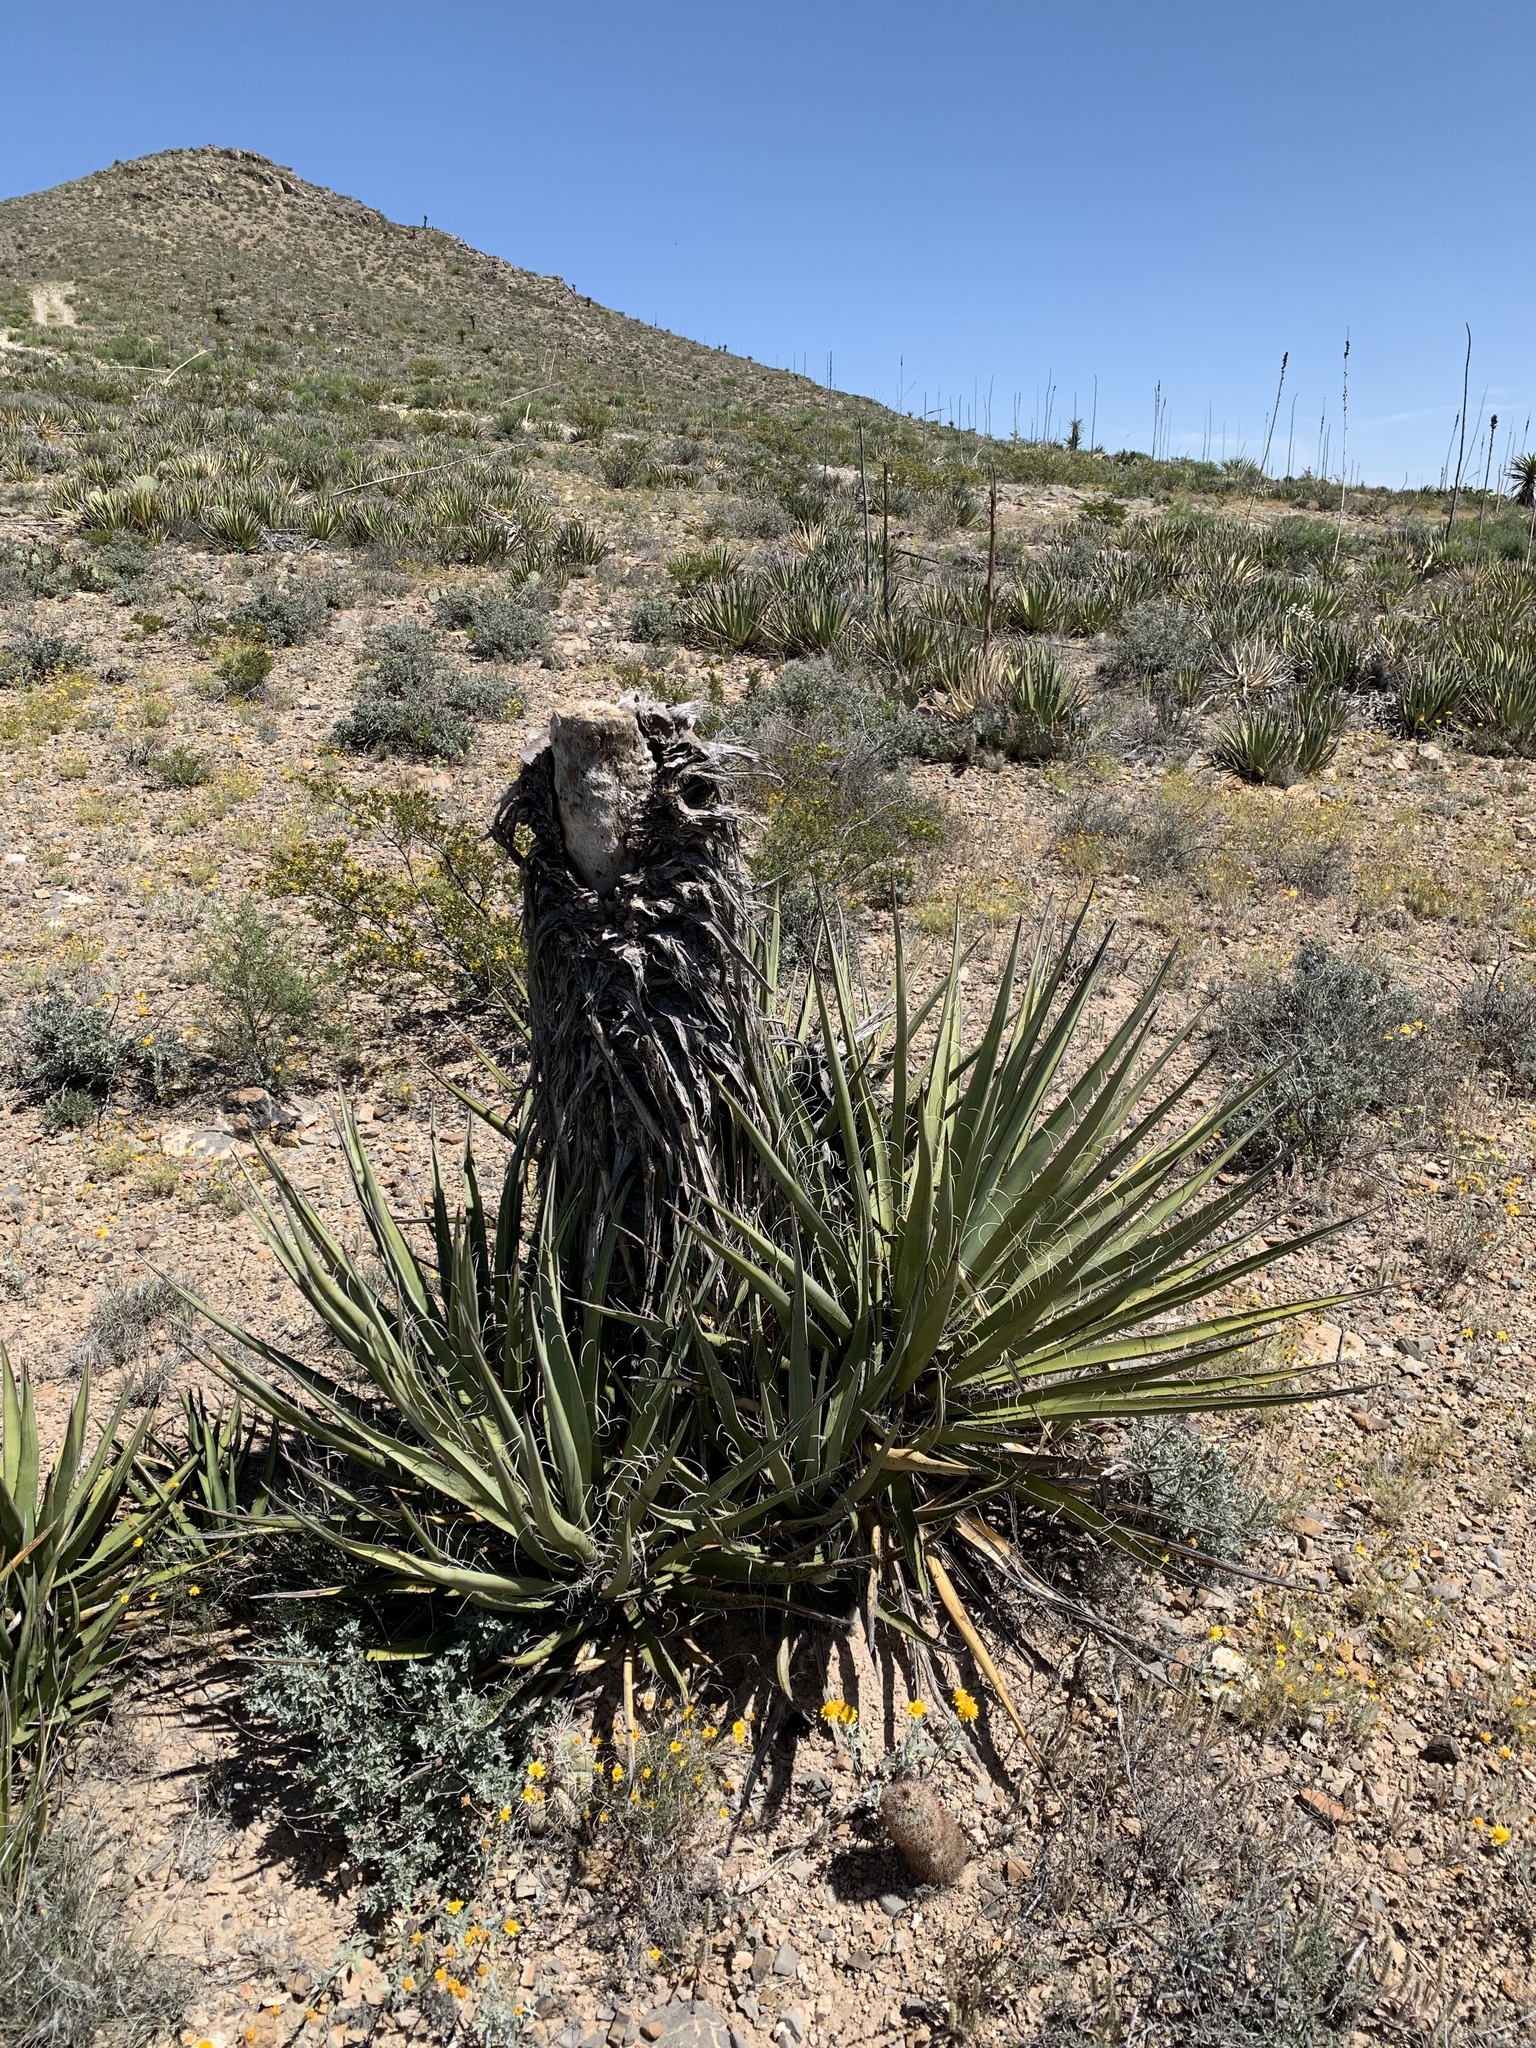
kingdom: Plantae
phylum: Tracheophyta
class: Liliopsida
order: Asparagales
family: Asparagaceae
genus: Yucca
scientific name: Yucca treculiana
